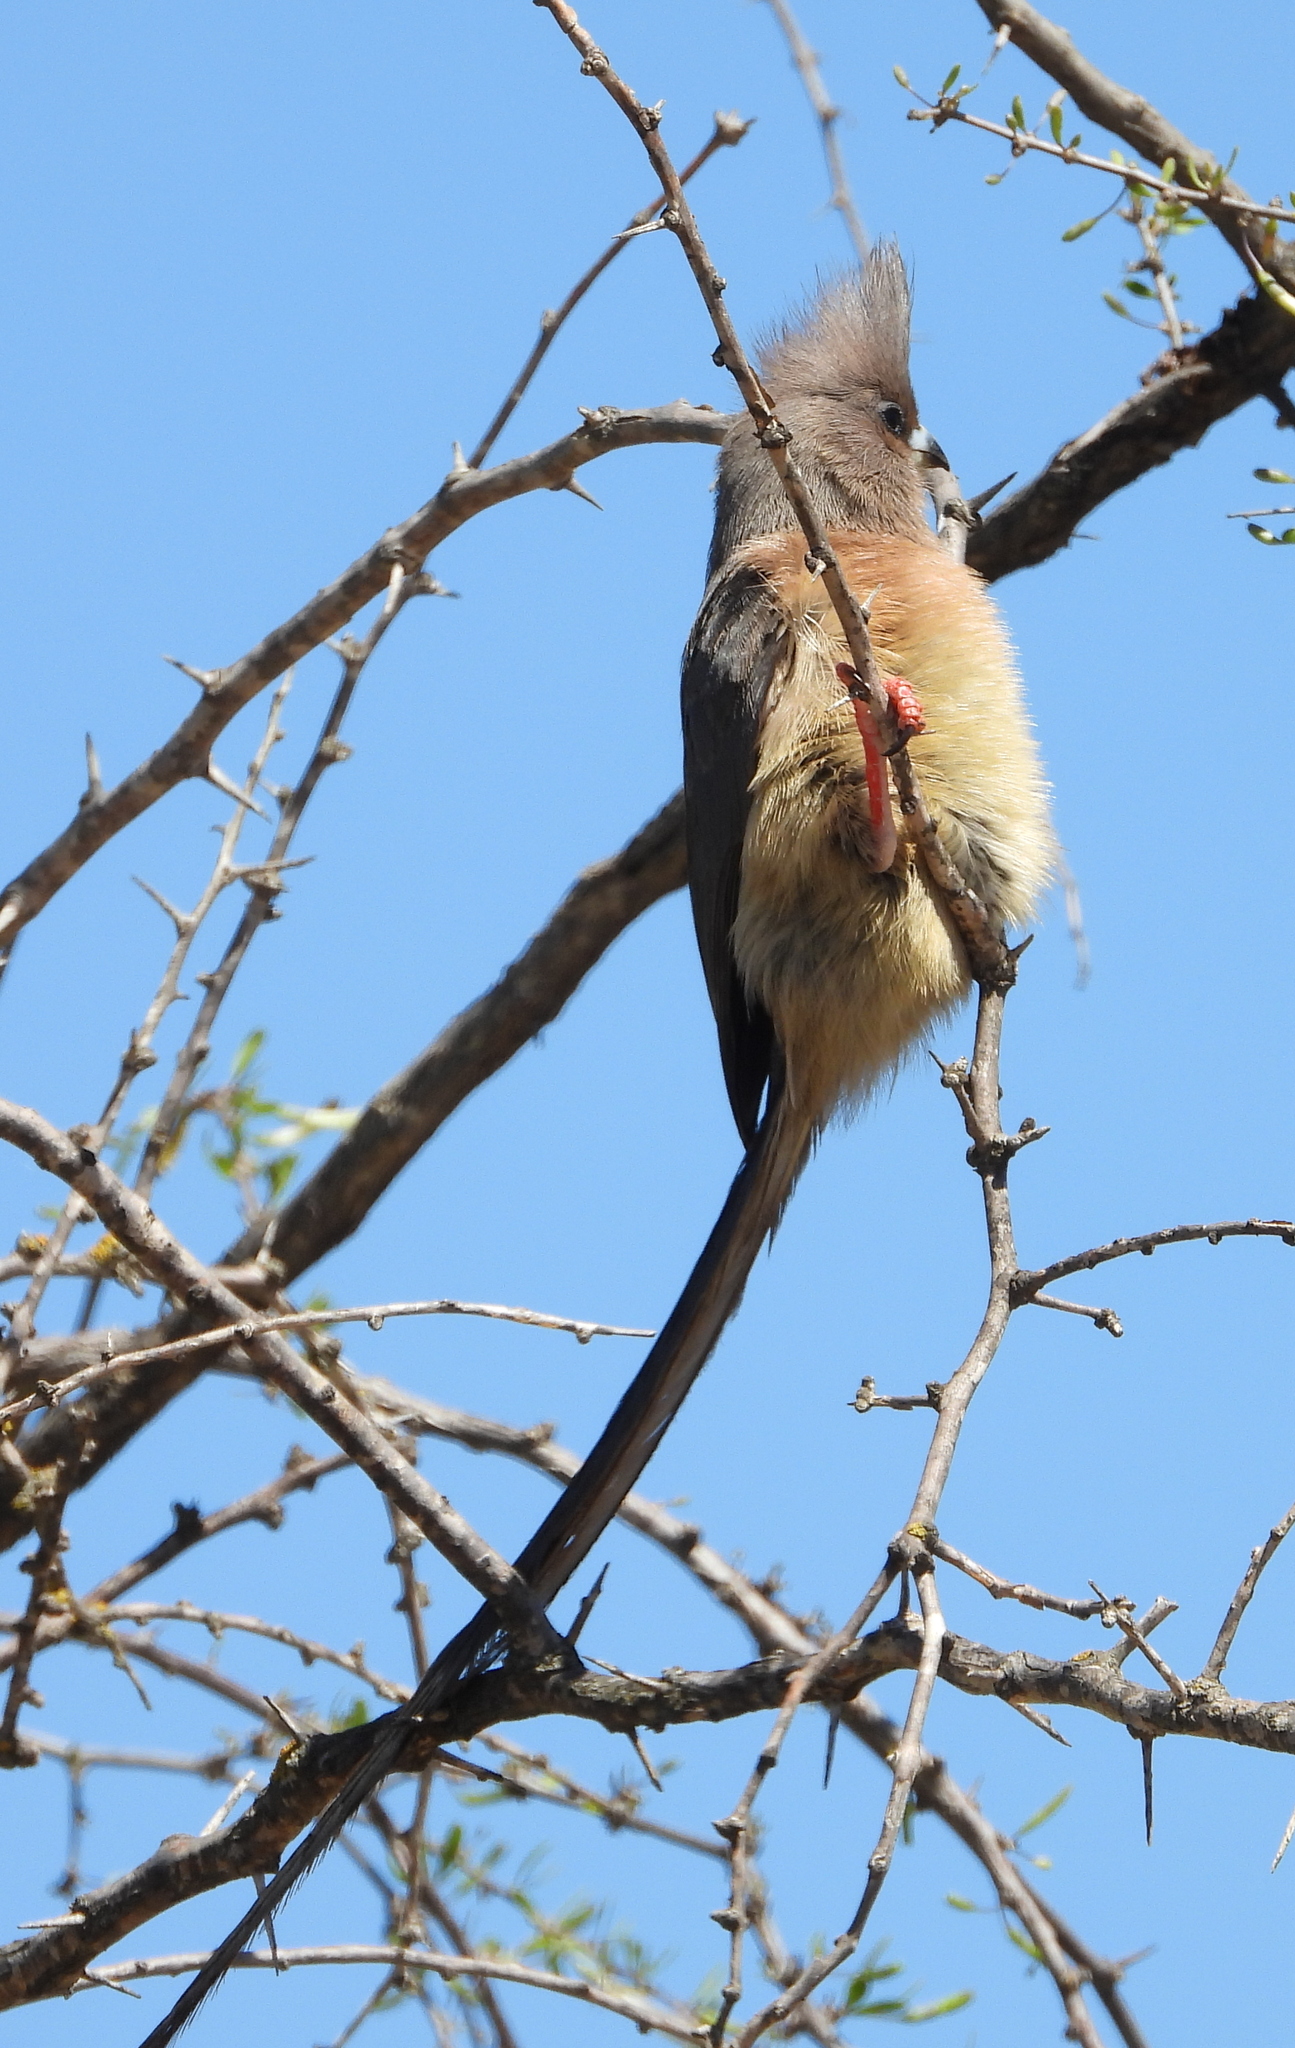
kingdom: Animalia
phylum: Chordata
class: Aves
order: Coliiformes
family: Coliidae
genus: Colius
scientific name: Colius colius
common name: White-backed mousebird
